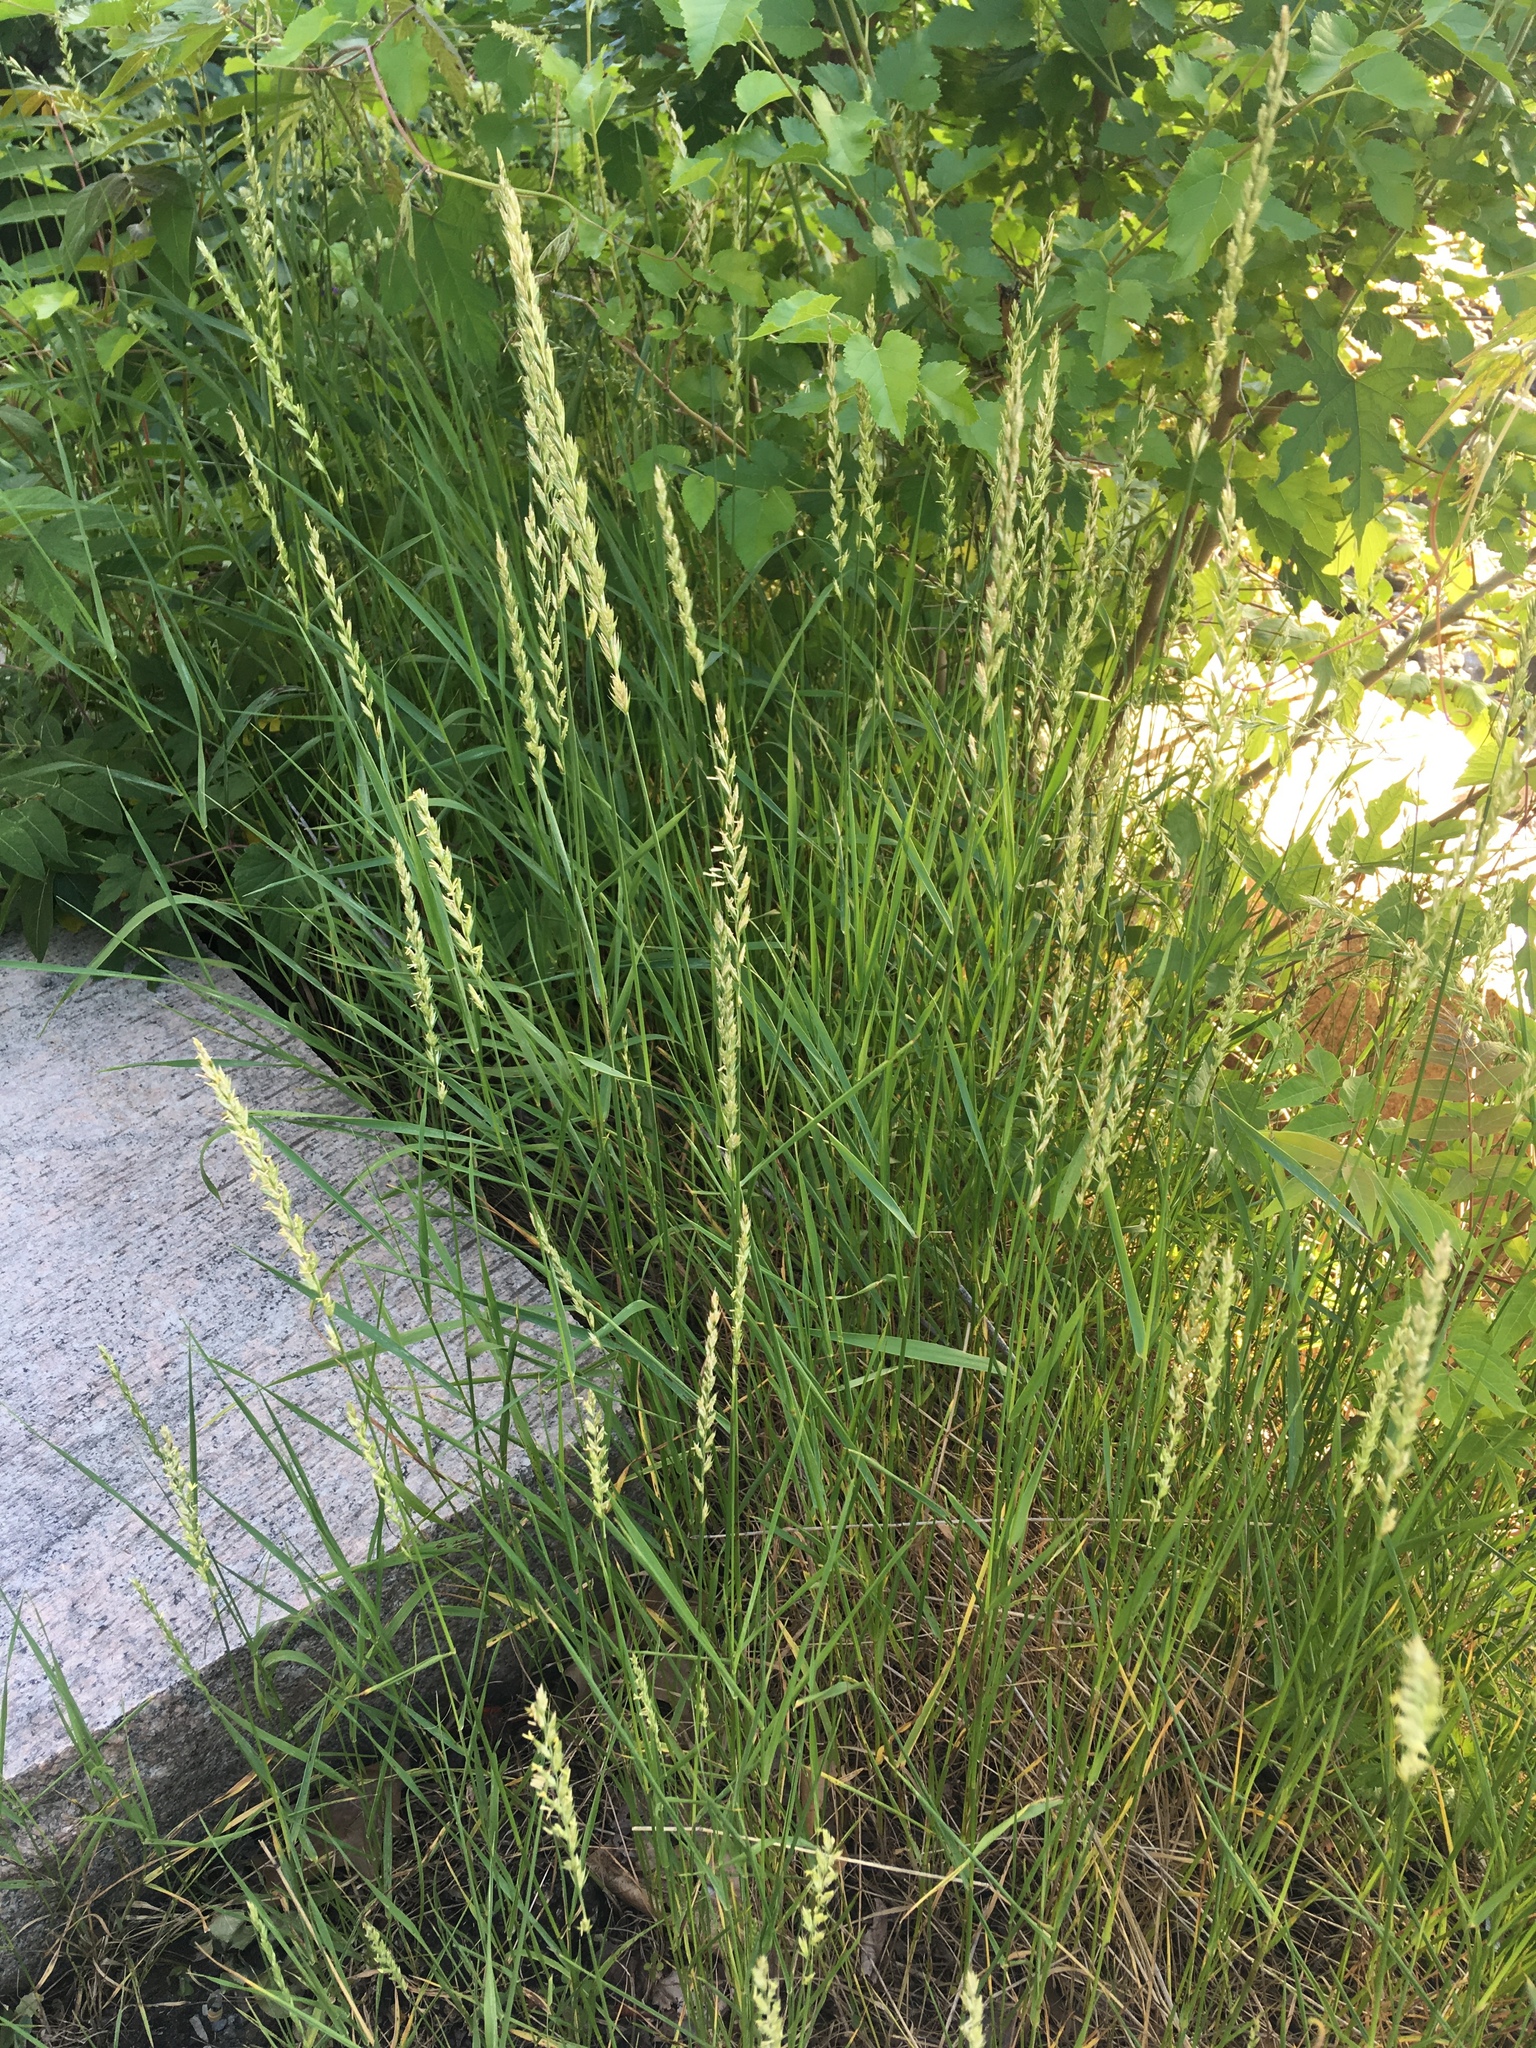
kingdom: Plantae
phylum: Tracheophyta
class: Liliopsida
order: Poales
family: Poaceae
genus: Lolium
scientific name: Lolium perenne
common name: Perennial ryegrass
